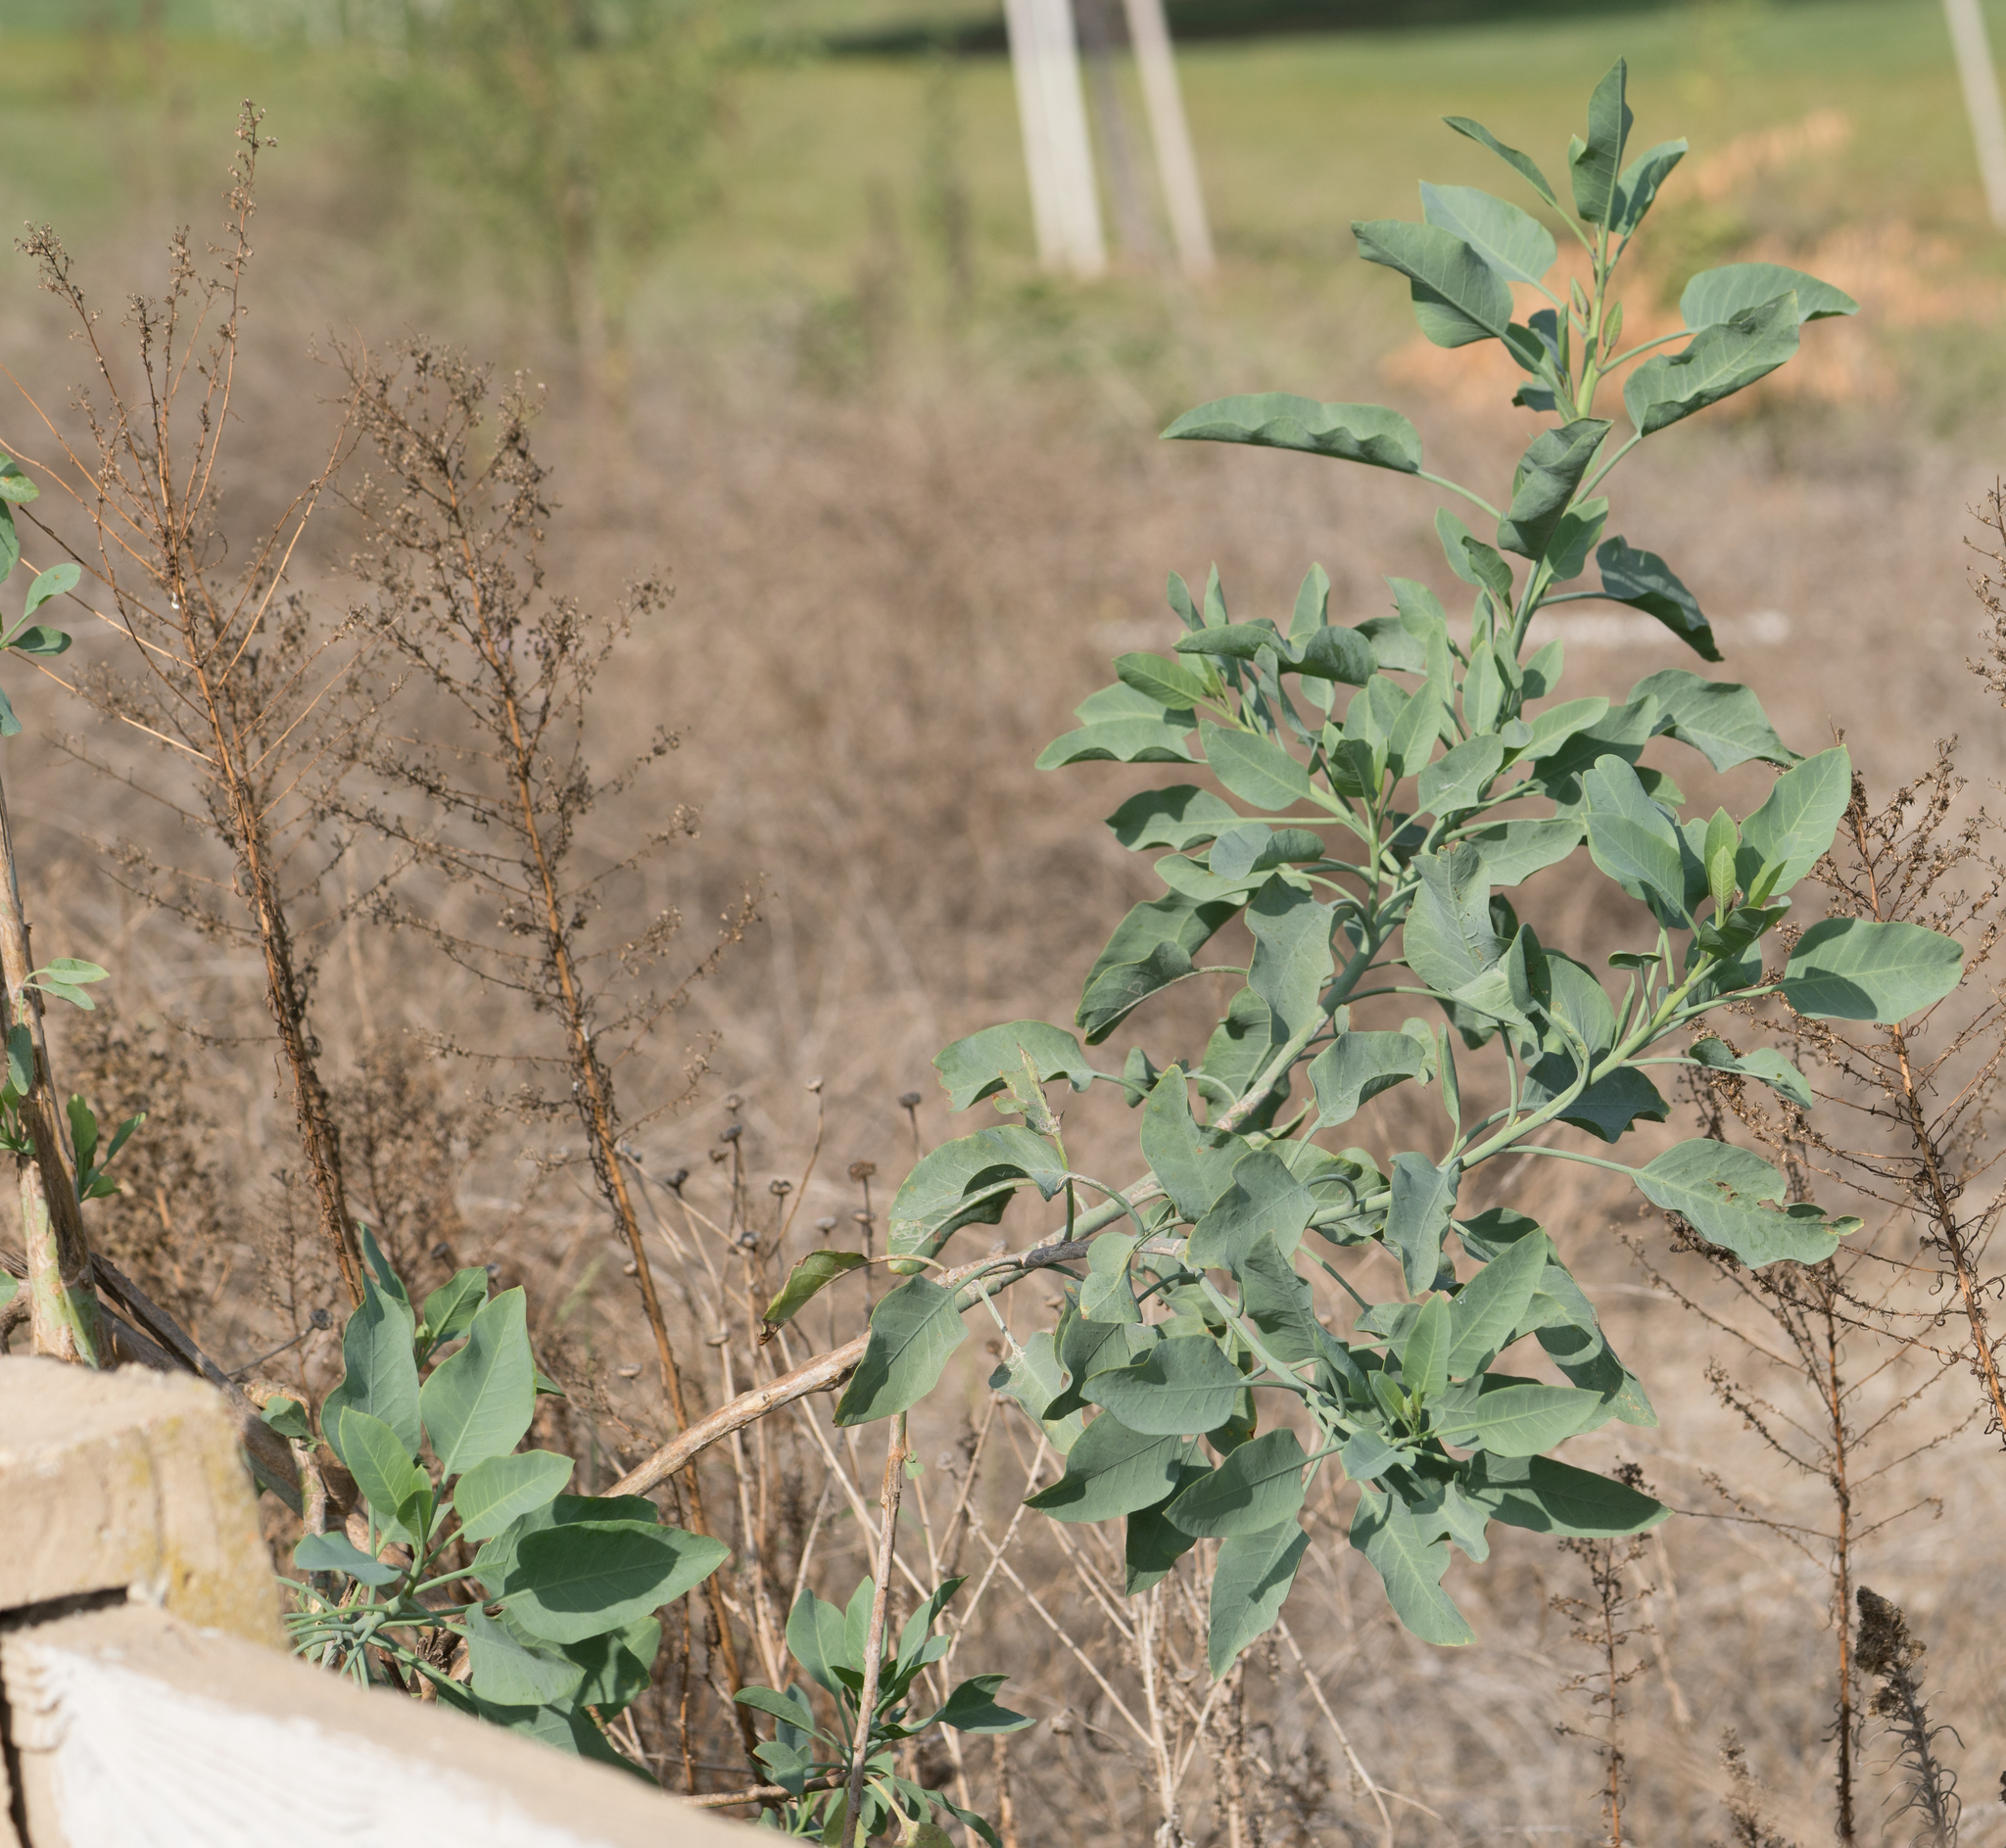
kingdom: Plantae
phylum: Tracheophyta
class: Magnoliopsida
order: Solanales
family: Solanaceae
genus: Nicotiana
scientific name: Nicotiana glauca
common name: Tree tobacco
